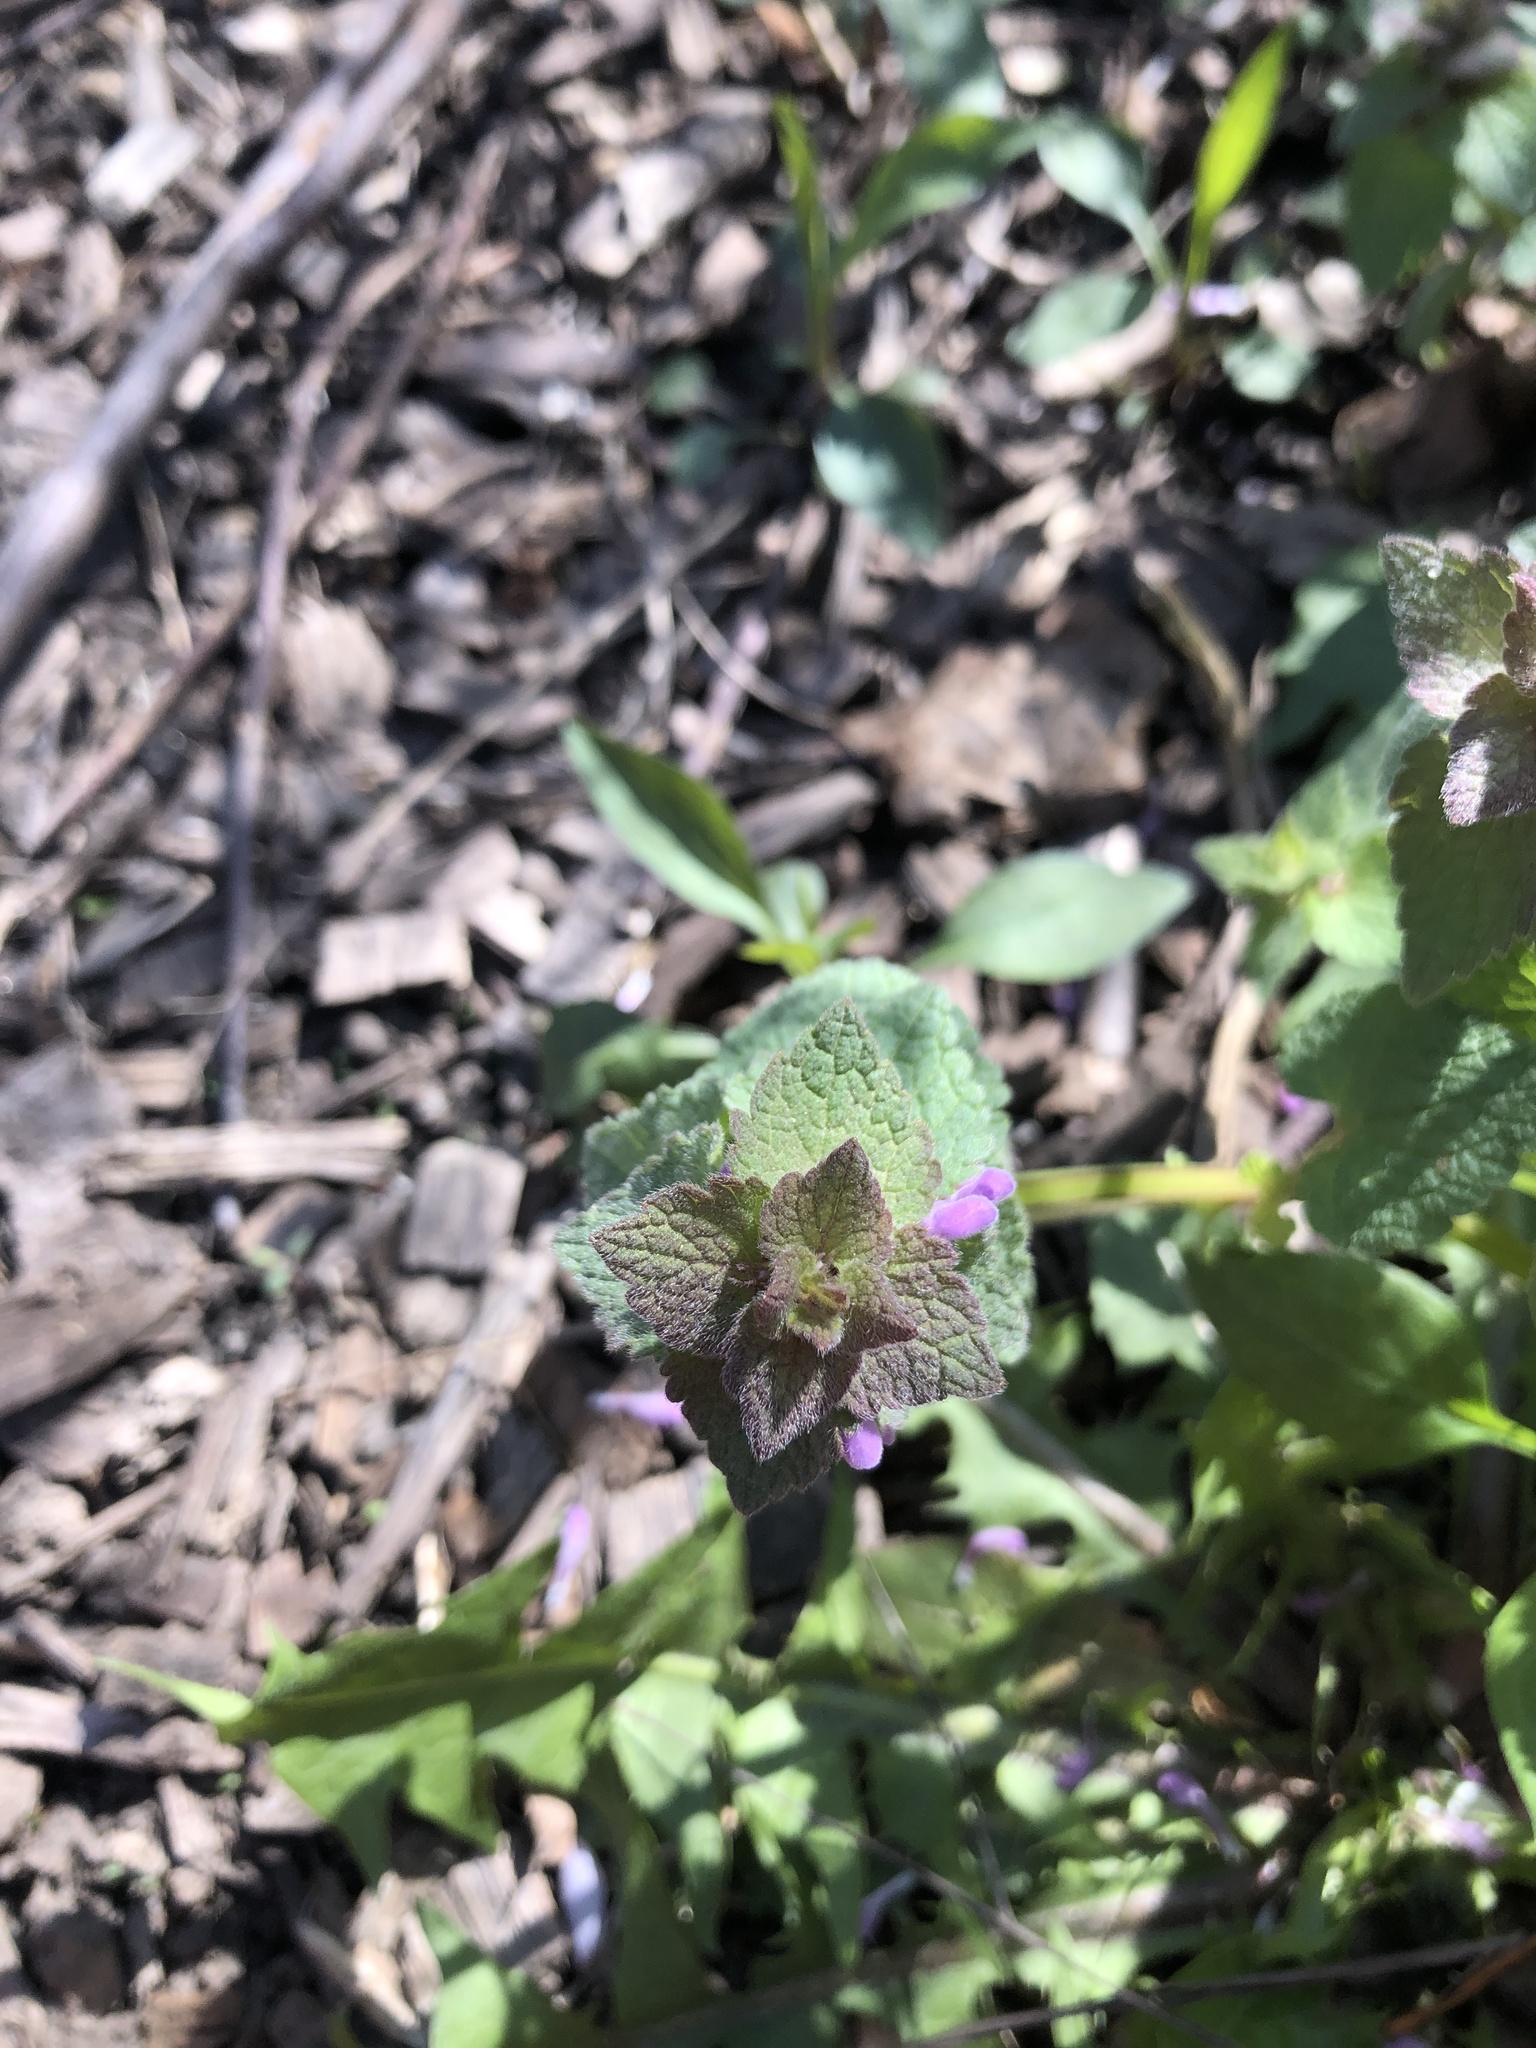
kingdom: Plantae
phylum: Tracheophyta
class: Magnoliopsida
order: Lamiales
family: Lamiaceae
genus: Lamium
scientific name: Lamium purpureum
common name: Red dead-nettle
